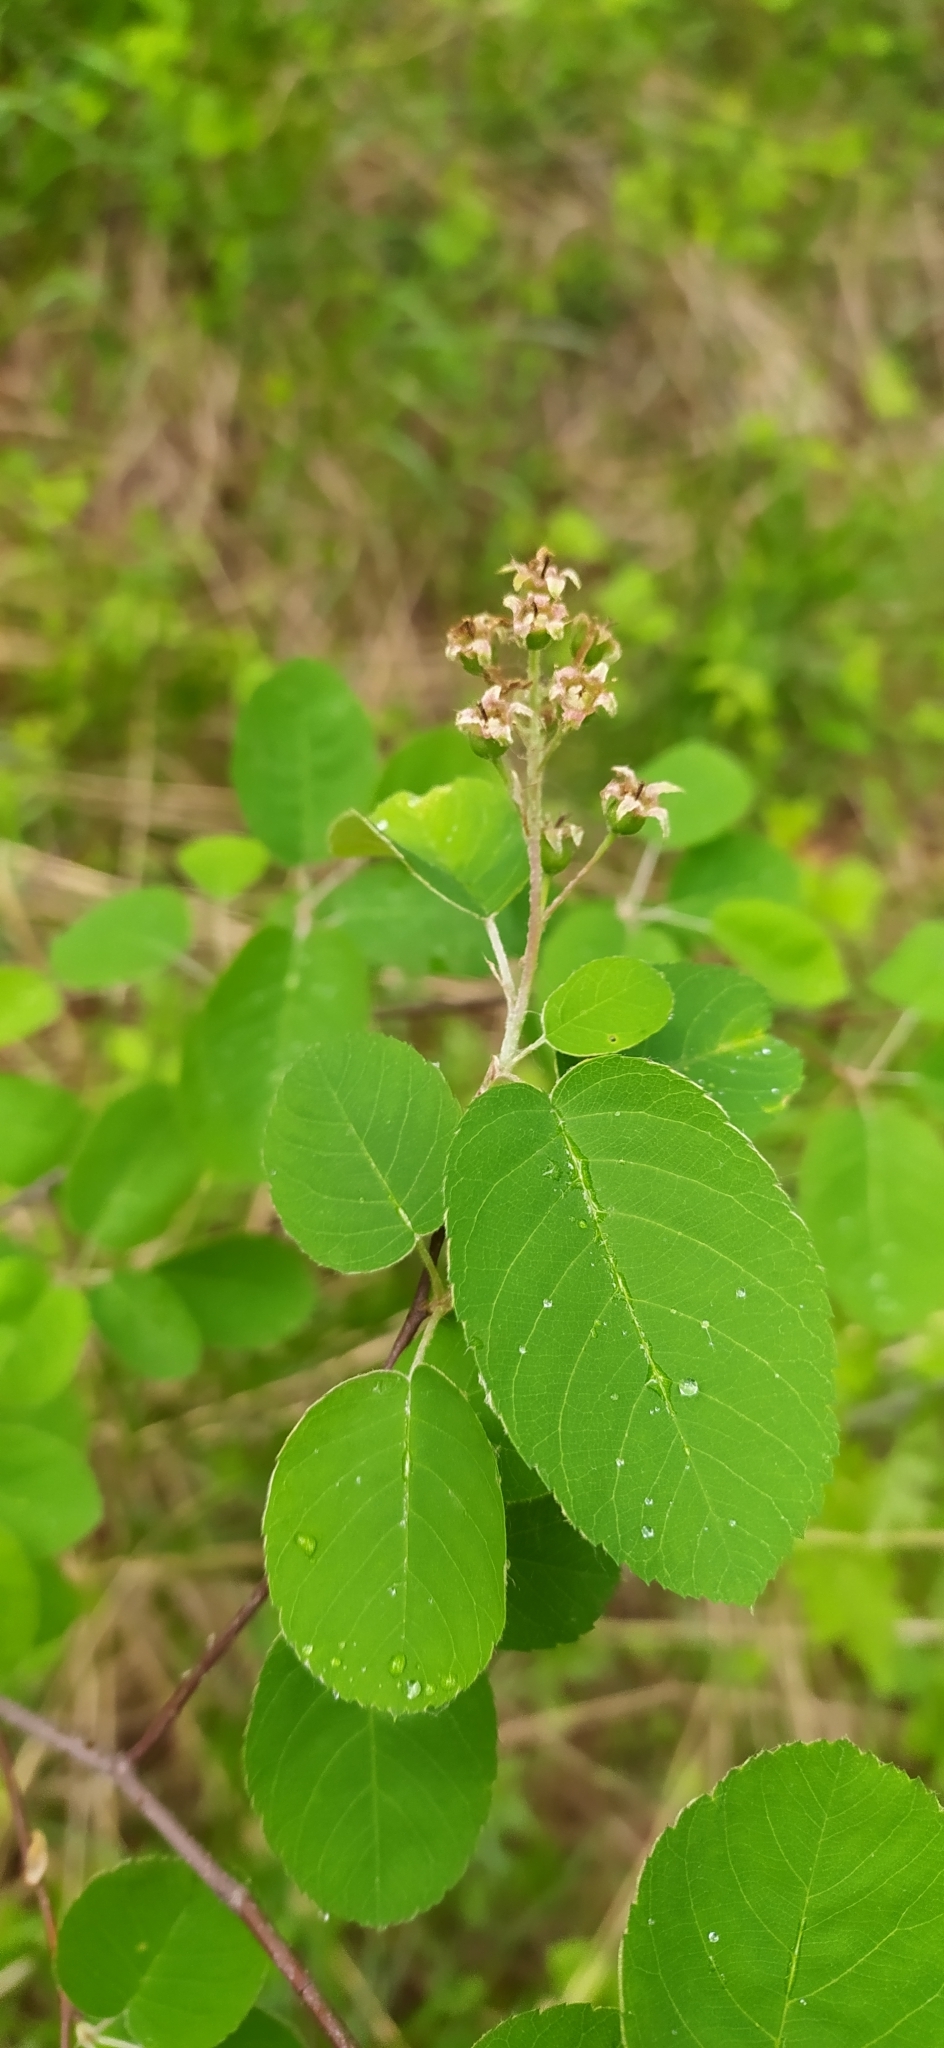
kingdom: Plantae
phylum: Tracheophyta
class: Magnoliopsida
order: Rosales
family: Rosaceae
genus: Amelanchier
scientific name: Amelanchier
